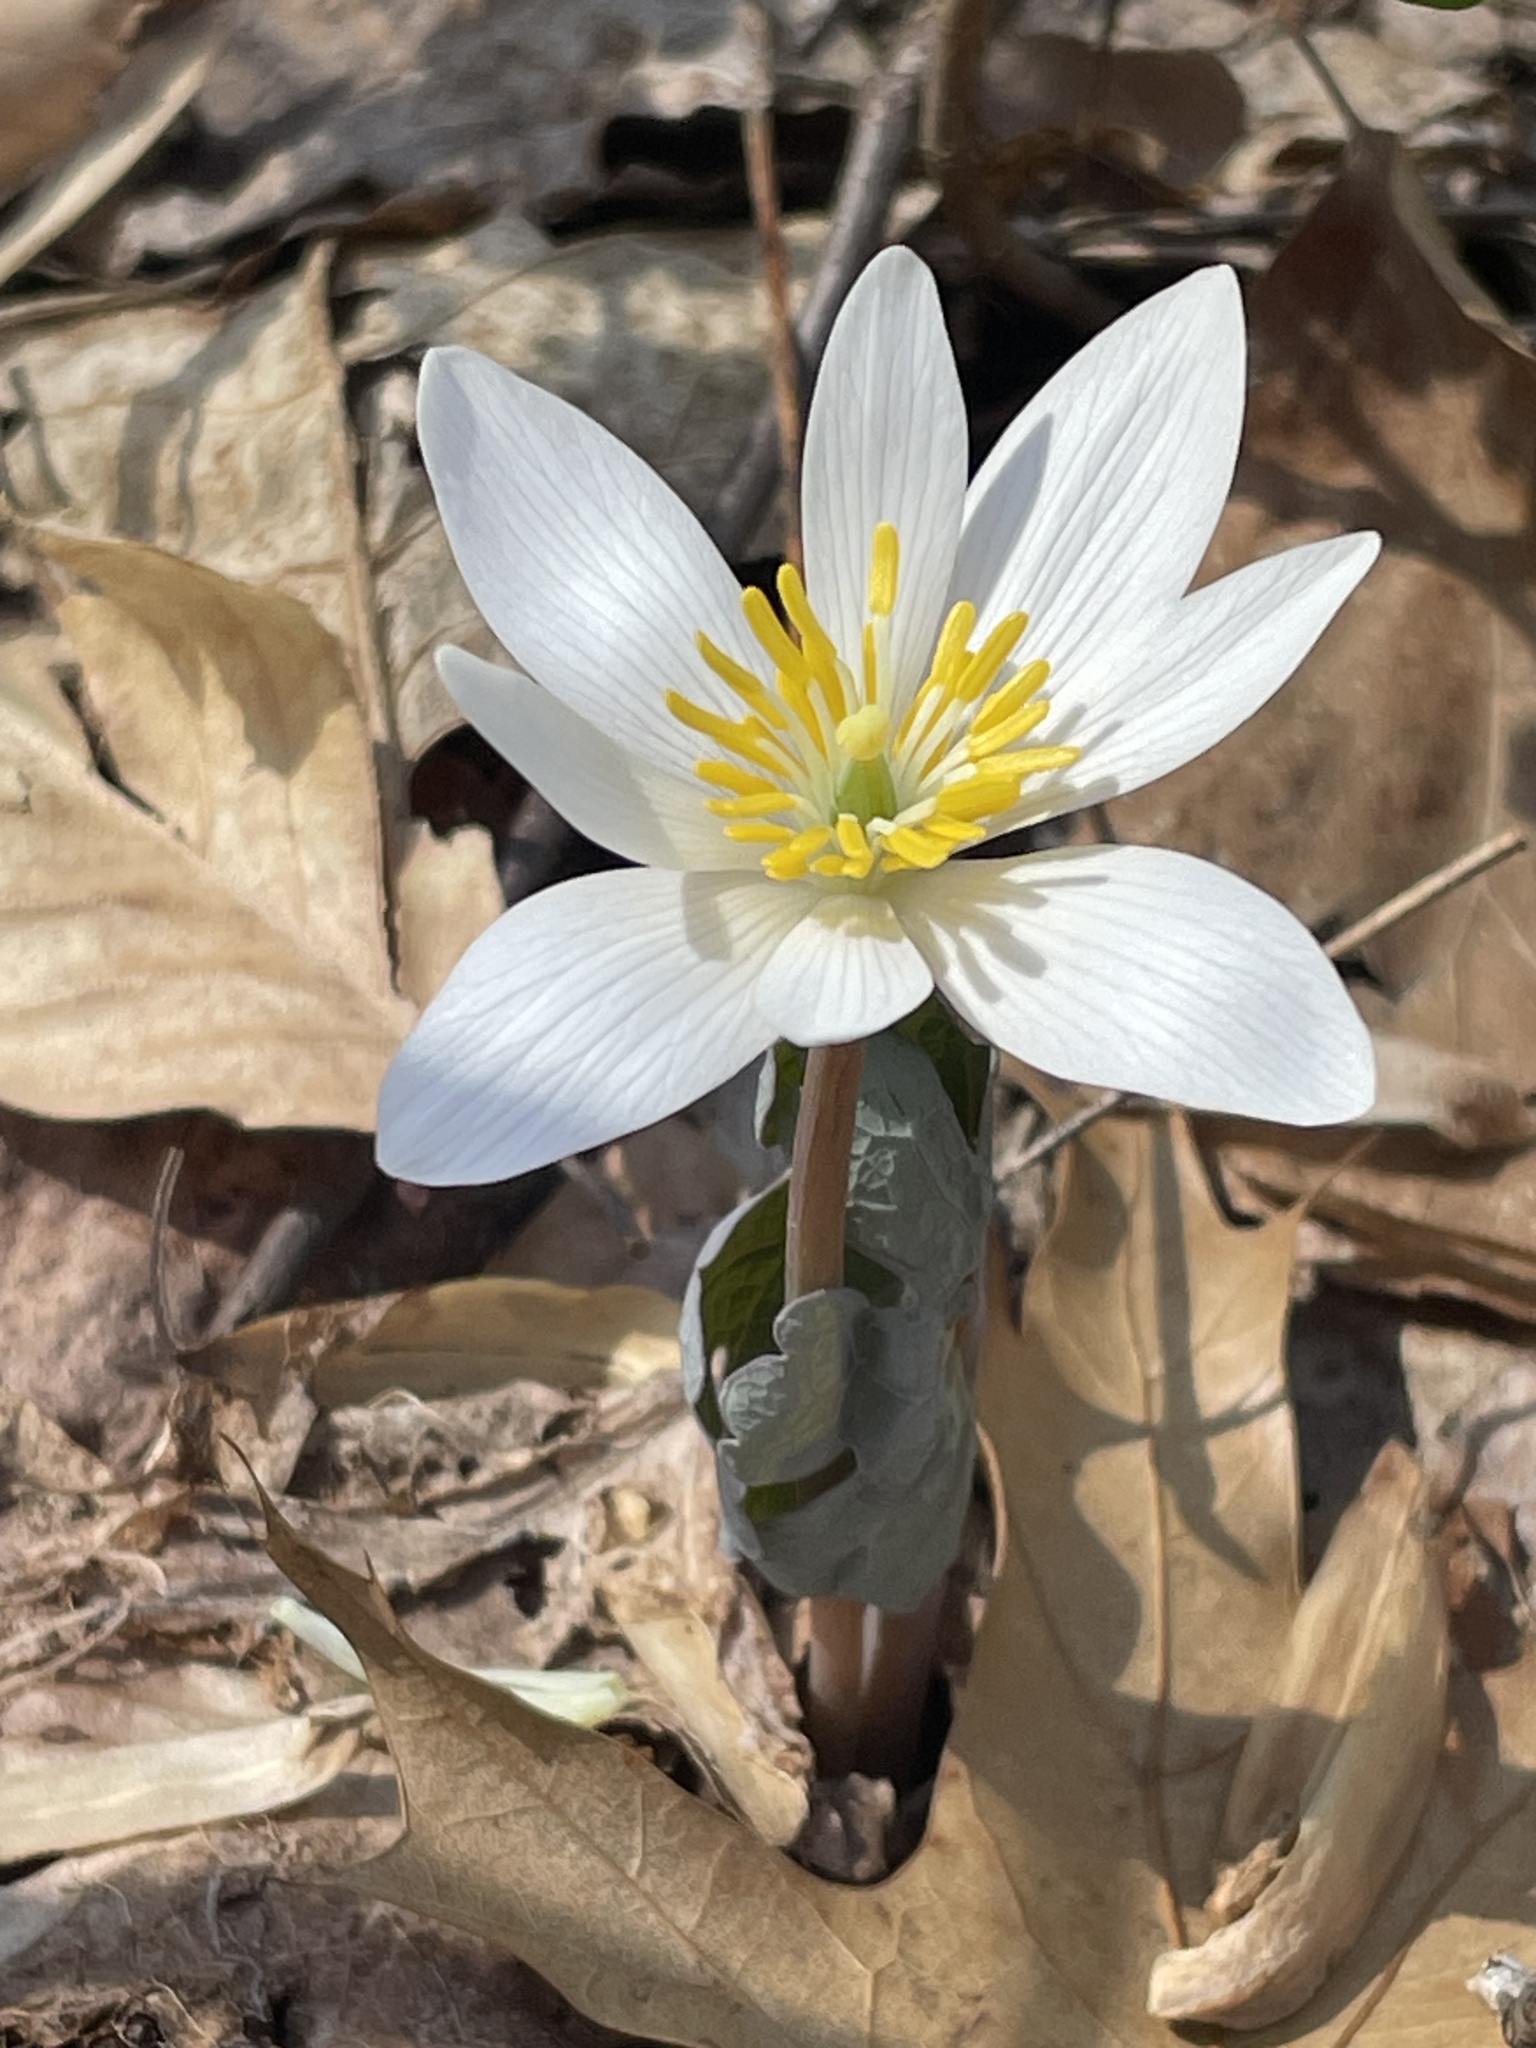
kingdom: Plantae
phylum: Tracheophyta
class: Magnoliopsida
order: Ranunculales
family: Papaveraceae
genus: Sanguinaria
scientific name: Sanguinaria canadensis
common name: Bloodroot
